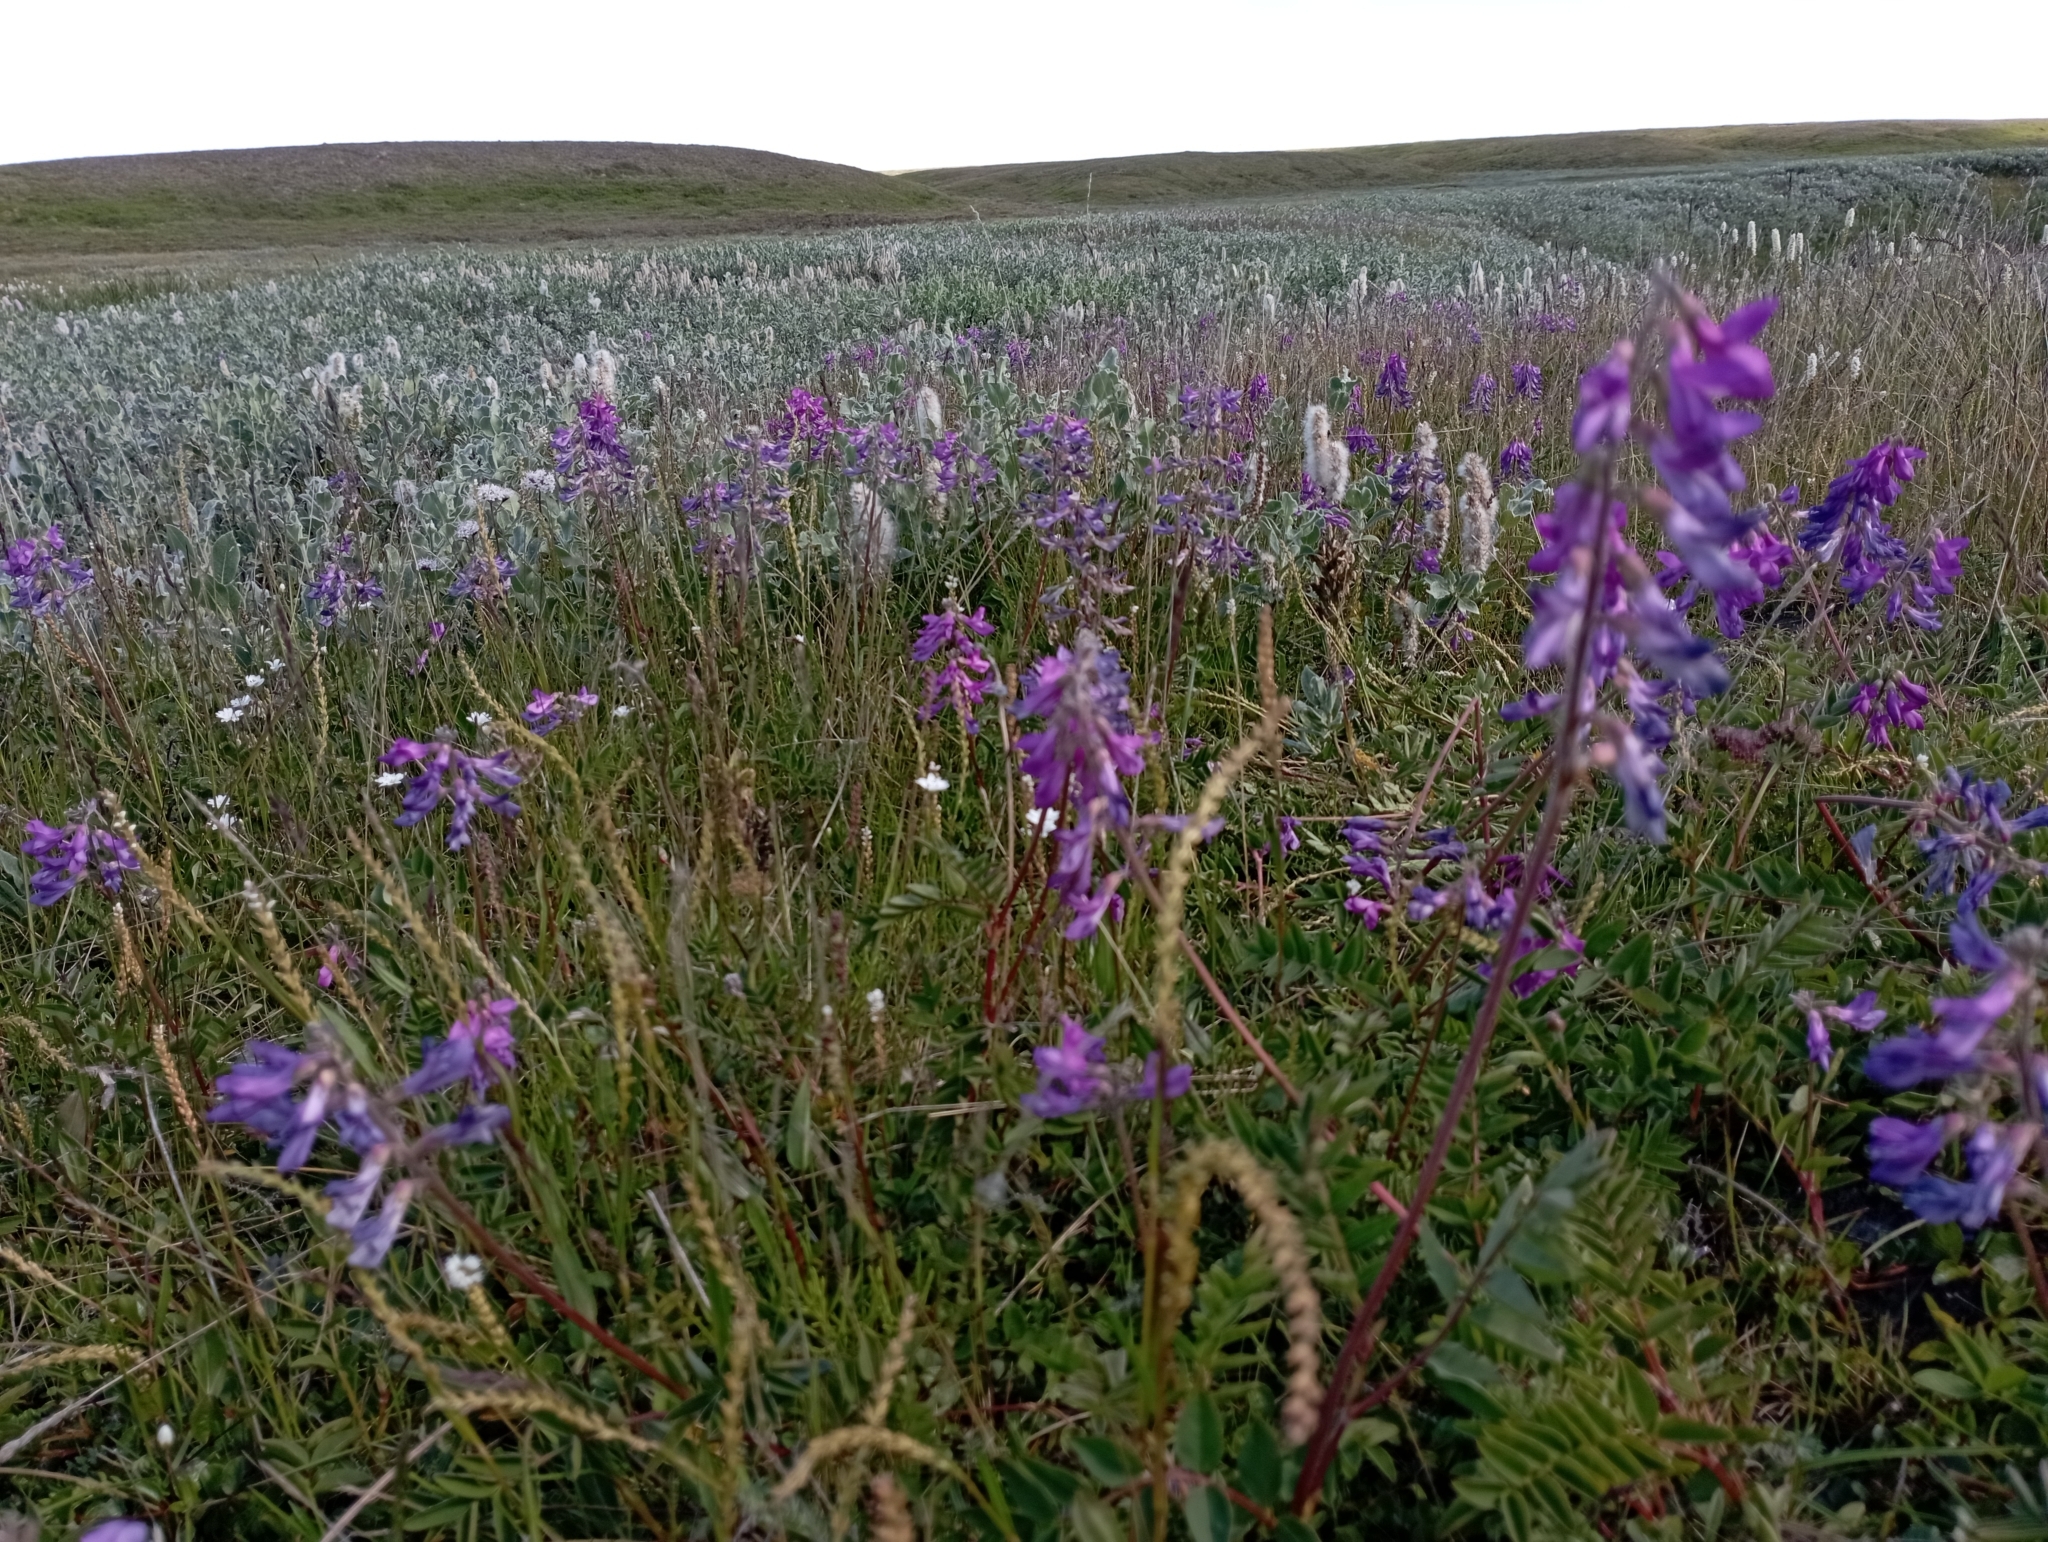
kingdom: Plantae
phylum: Tracheophyta
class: Magnoliopsida
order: Fabales
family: Fabaceae
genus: Hedysarum
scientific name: Hedysarum hedysaroides
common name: Alpine french-honeysuckle
